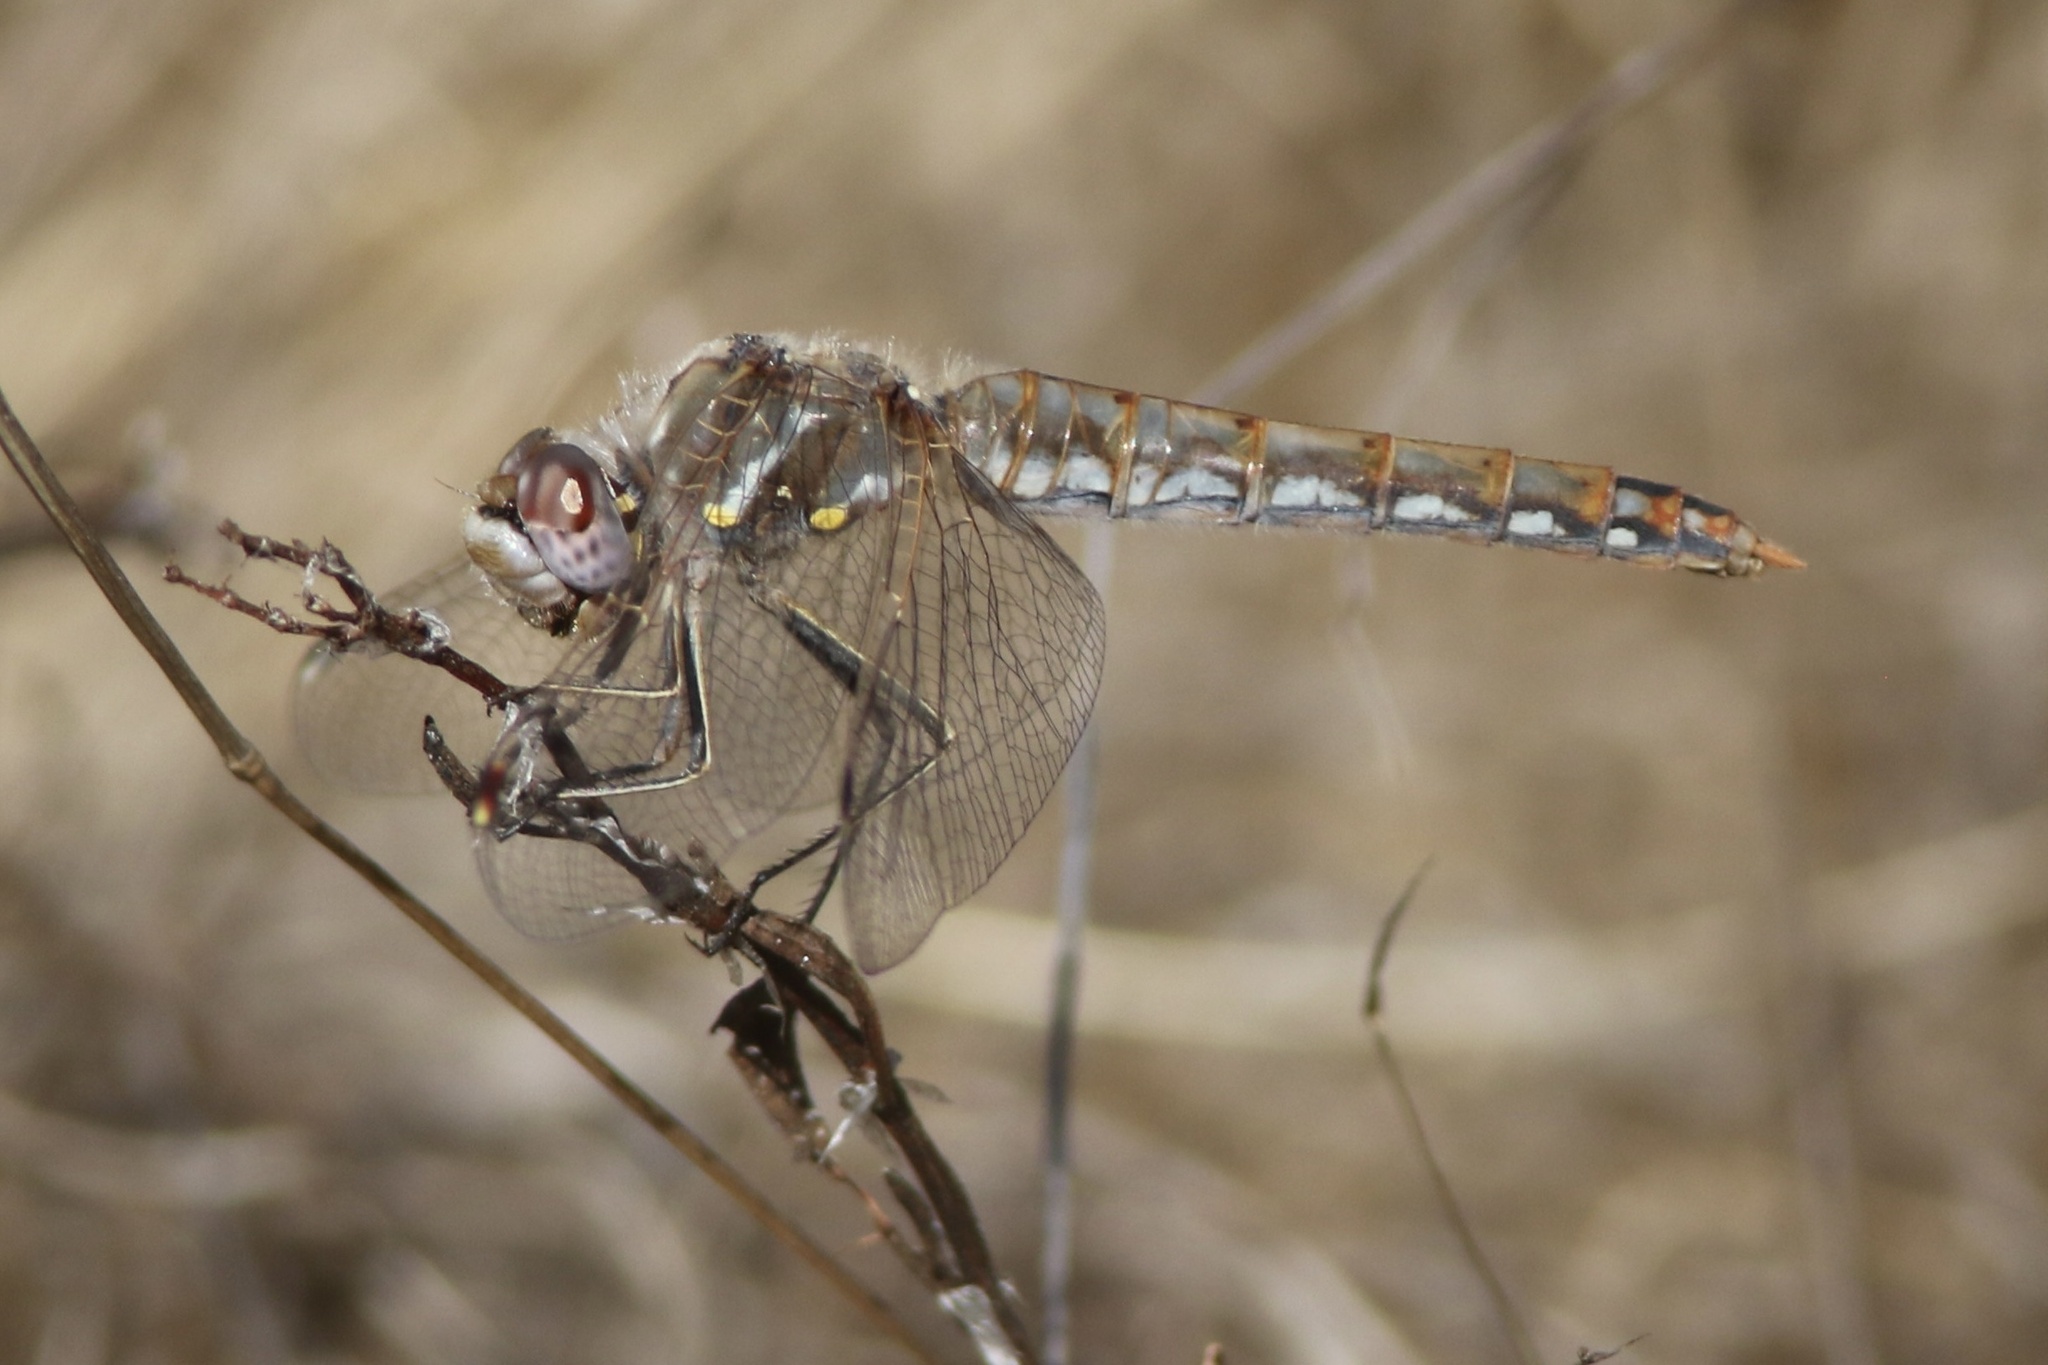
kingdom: Animalia
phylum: Arthropoda
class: Insecta
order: Odonata
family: Libellulidae
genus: Sympetrum
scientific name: Sympetrum corruptum
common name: Variegated meadowhawk
